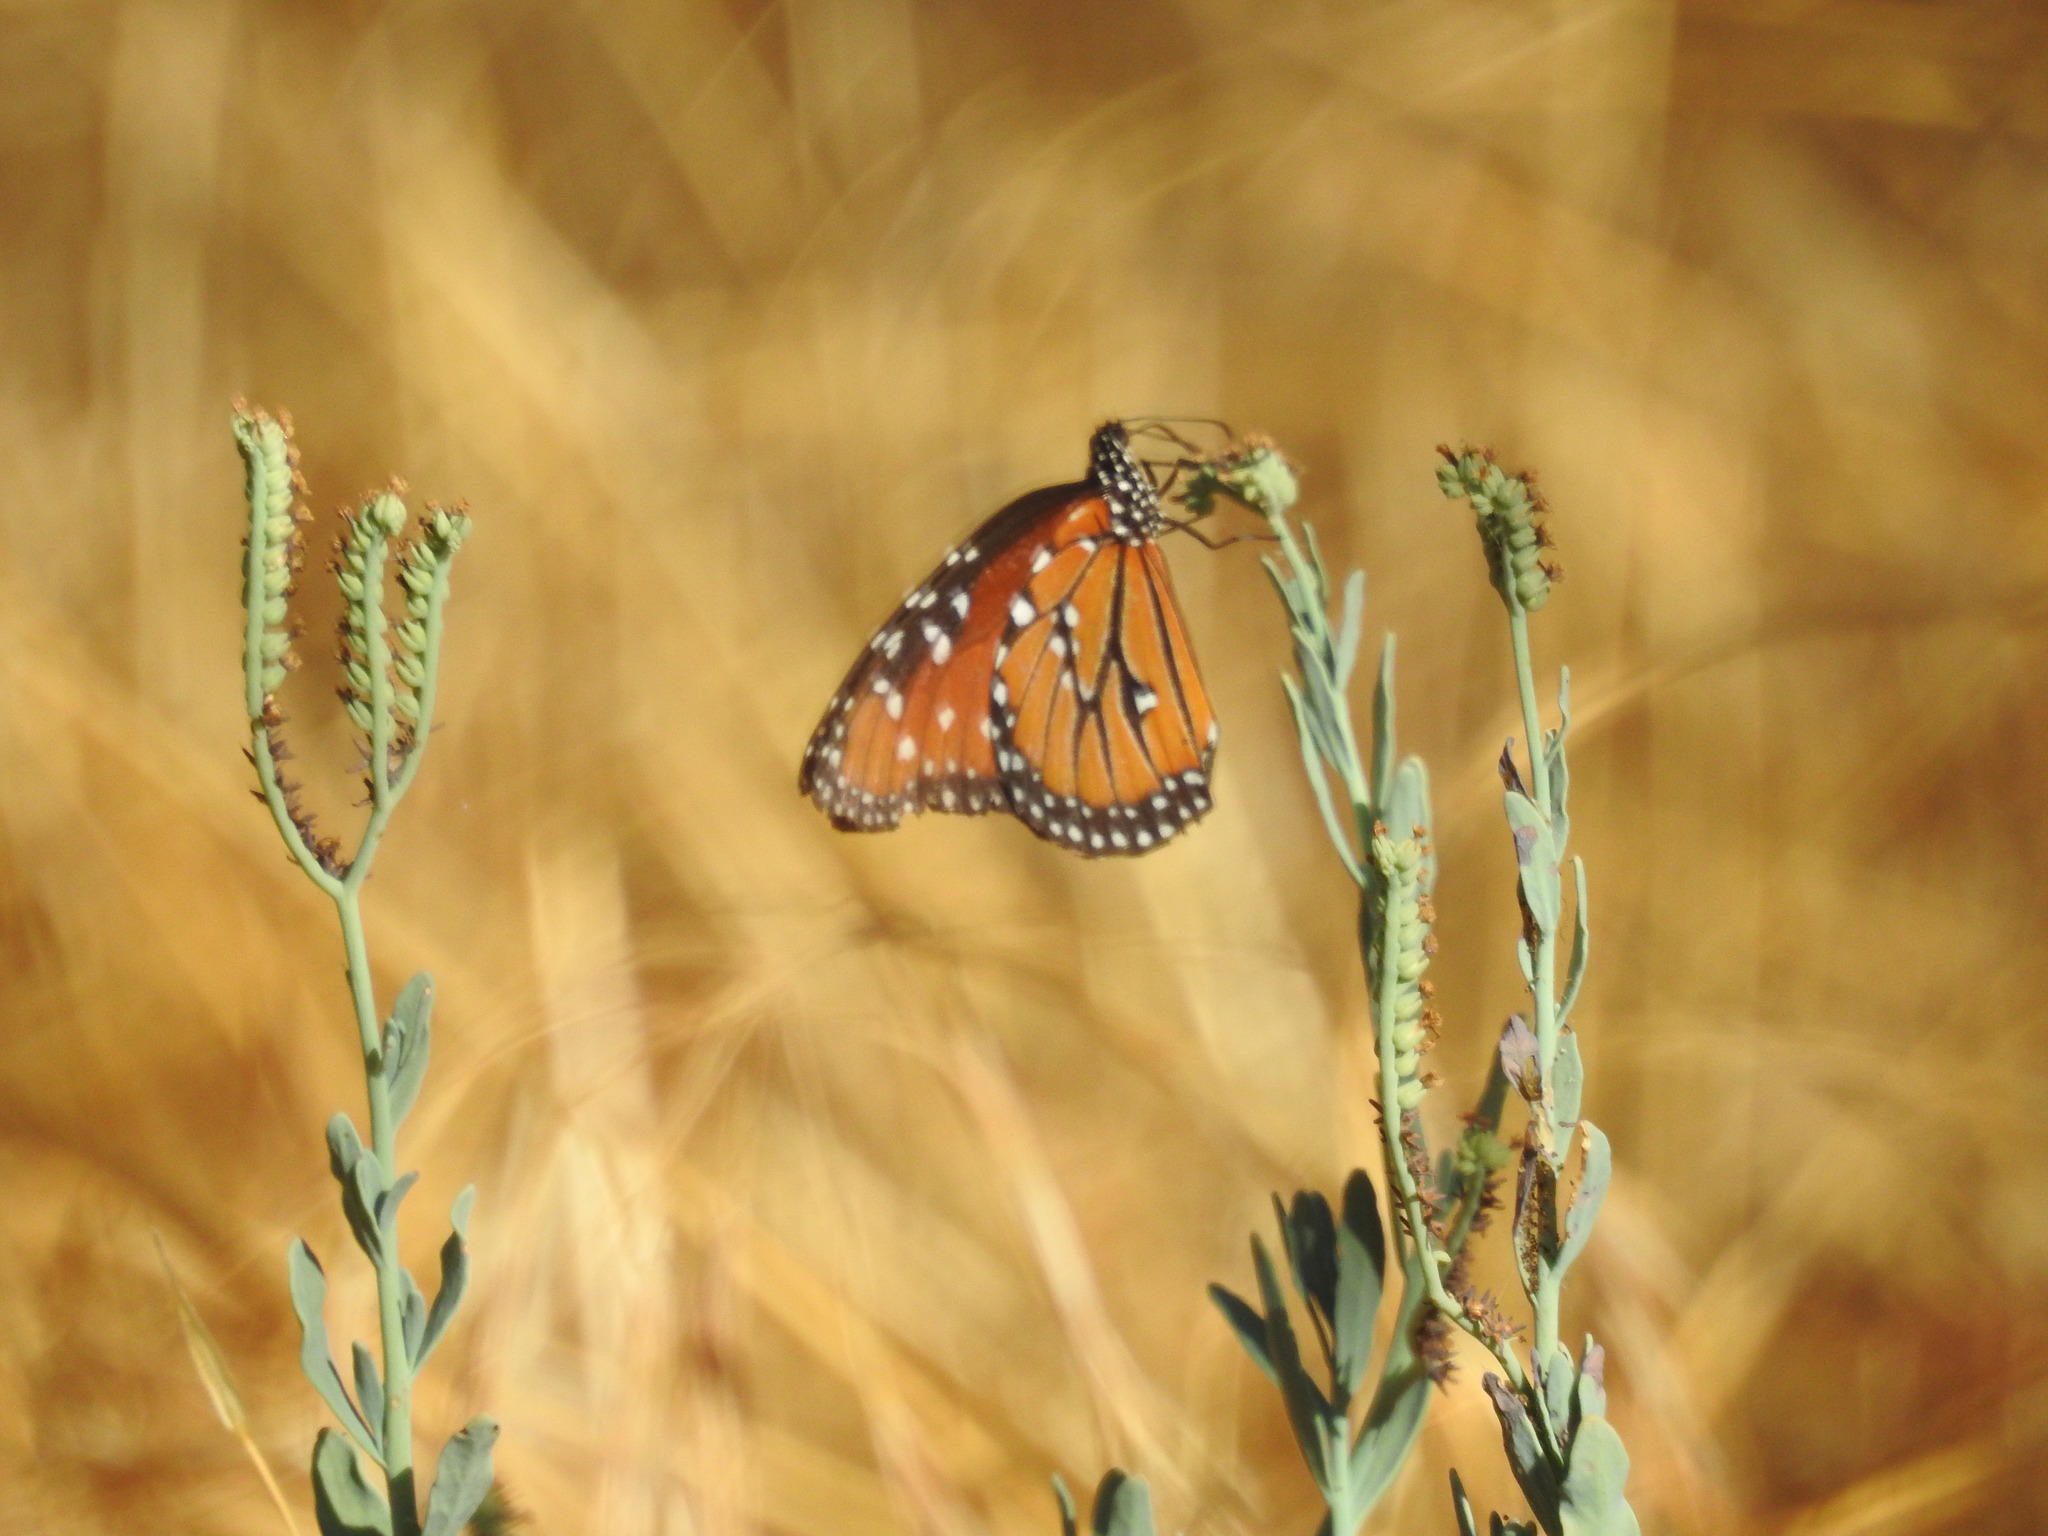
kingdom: Animalia
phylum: Arthropoda
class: Insecta
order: Lepidoptera
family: Nymphalidae
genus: Danaus
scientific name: Danaus gilippus
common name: Queen
